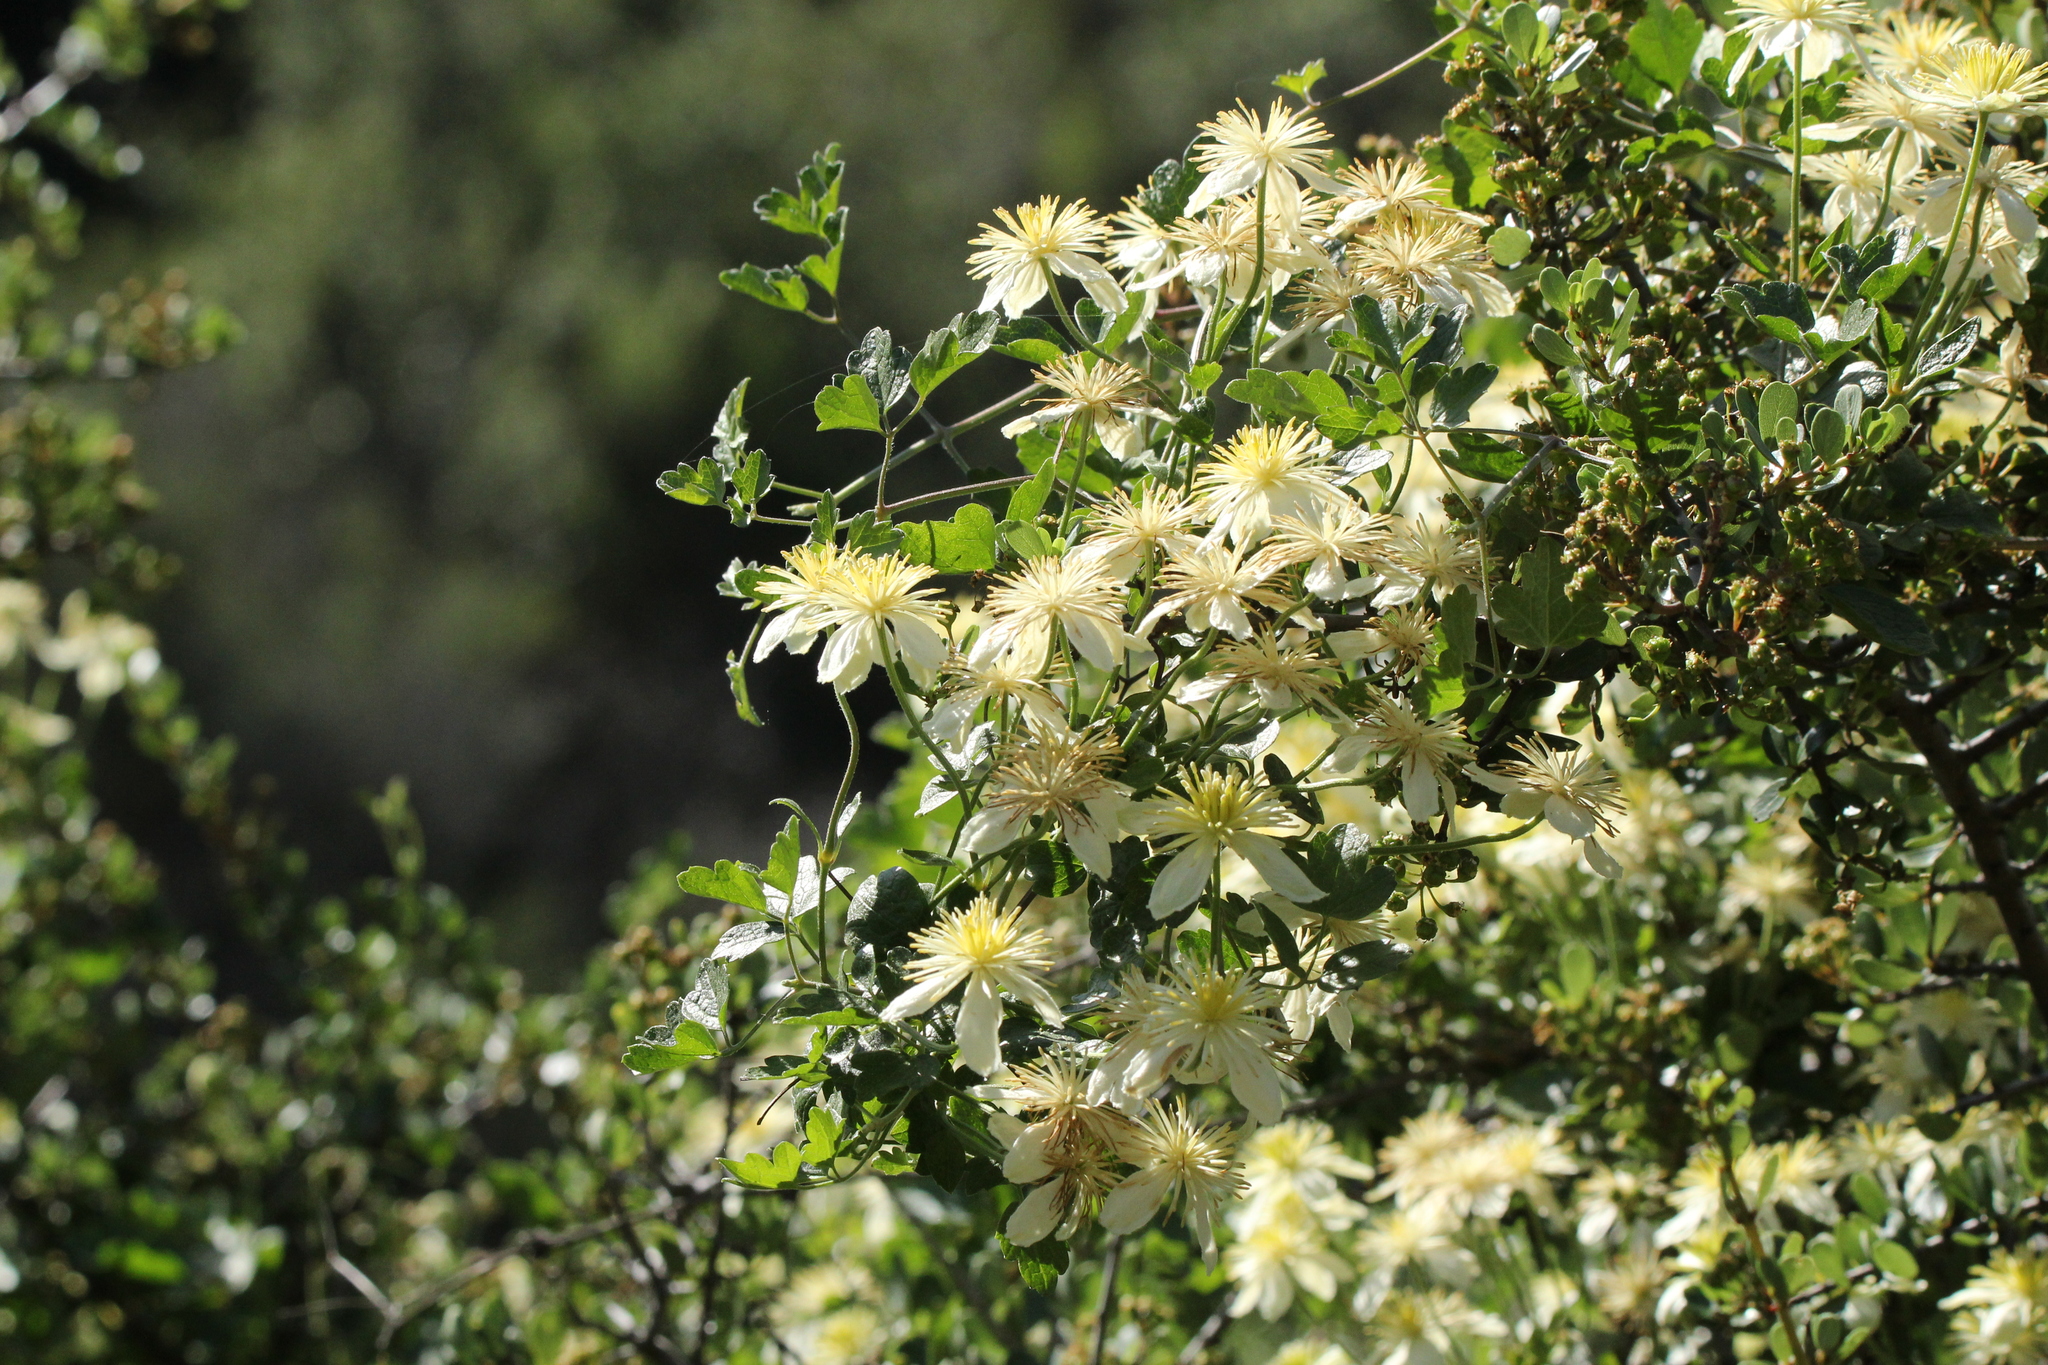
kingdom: Plantae
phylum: Tracheophyta
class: Magnoliopsida
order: Ranunculales
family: Ranunculaceae
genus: Clematis
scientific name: Clematis lasiantha
